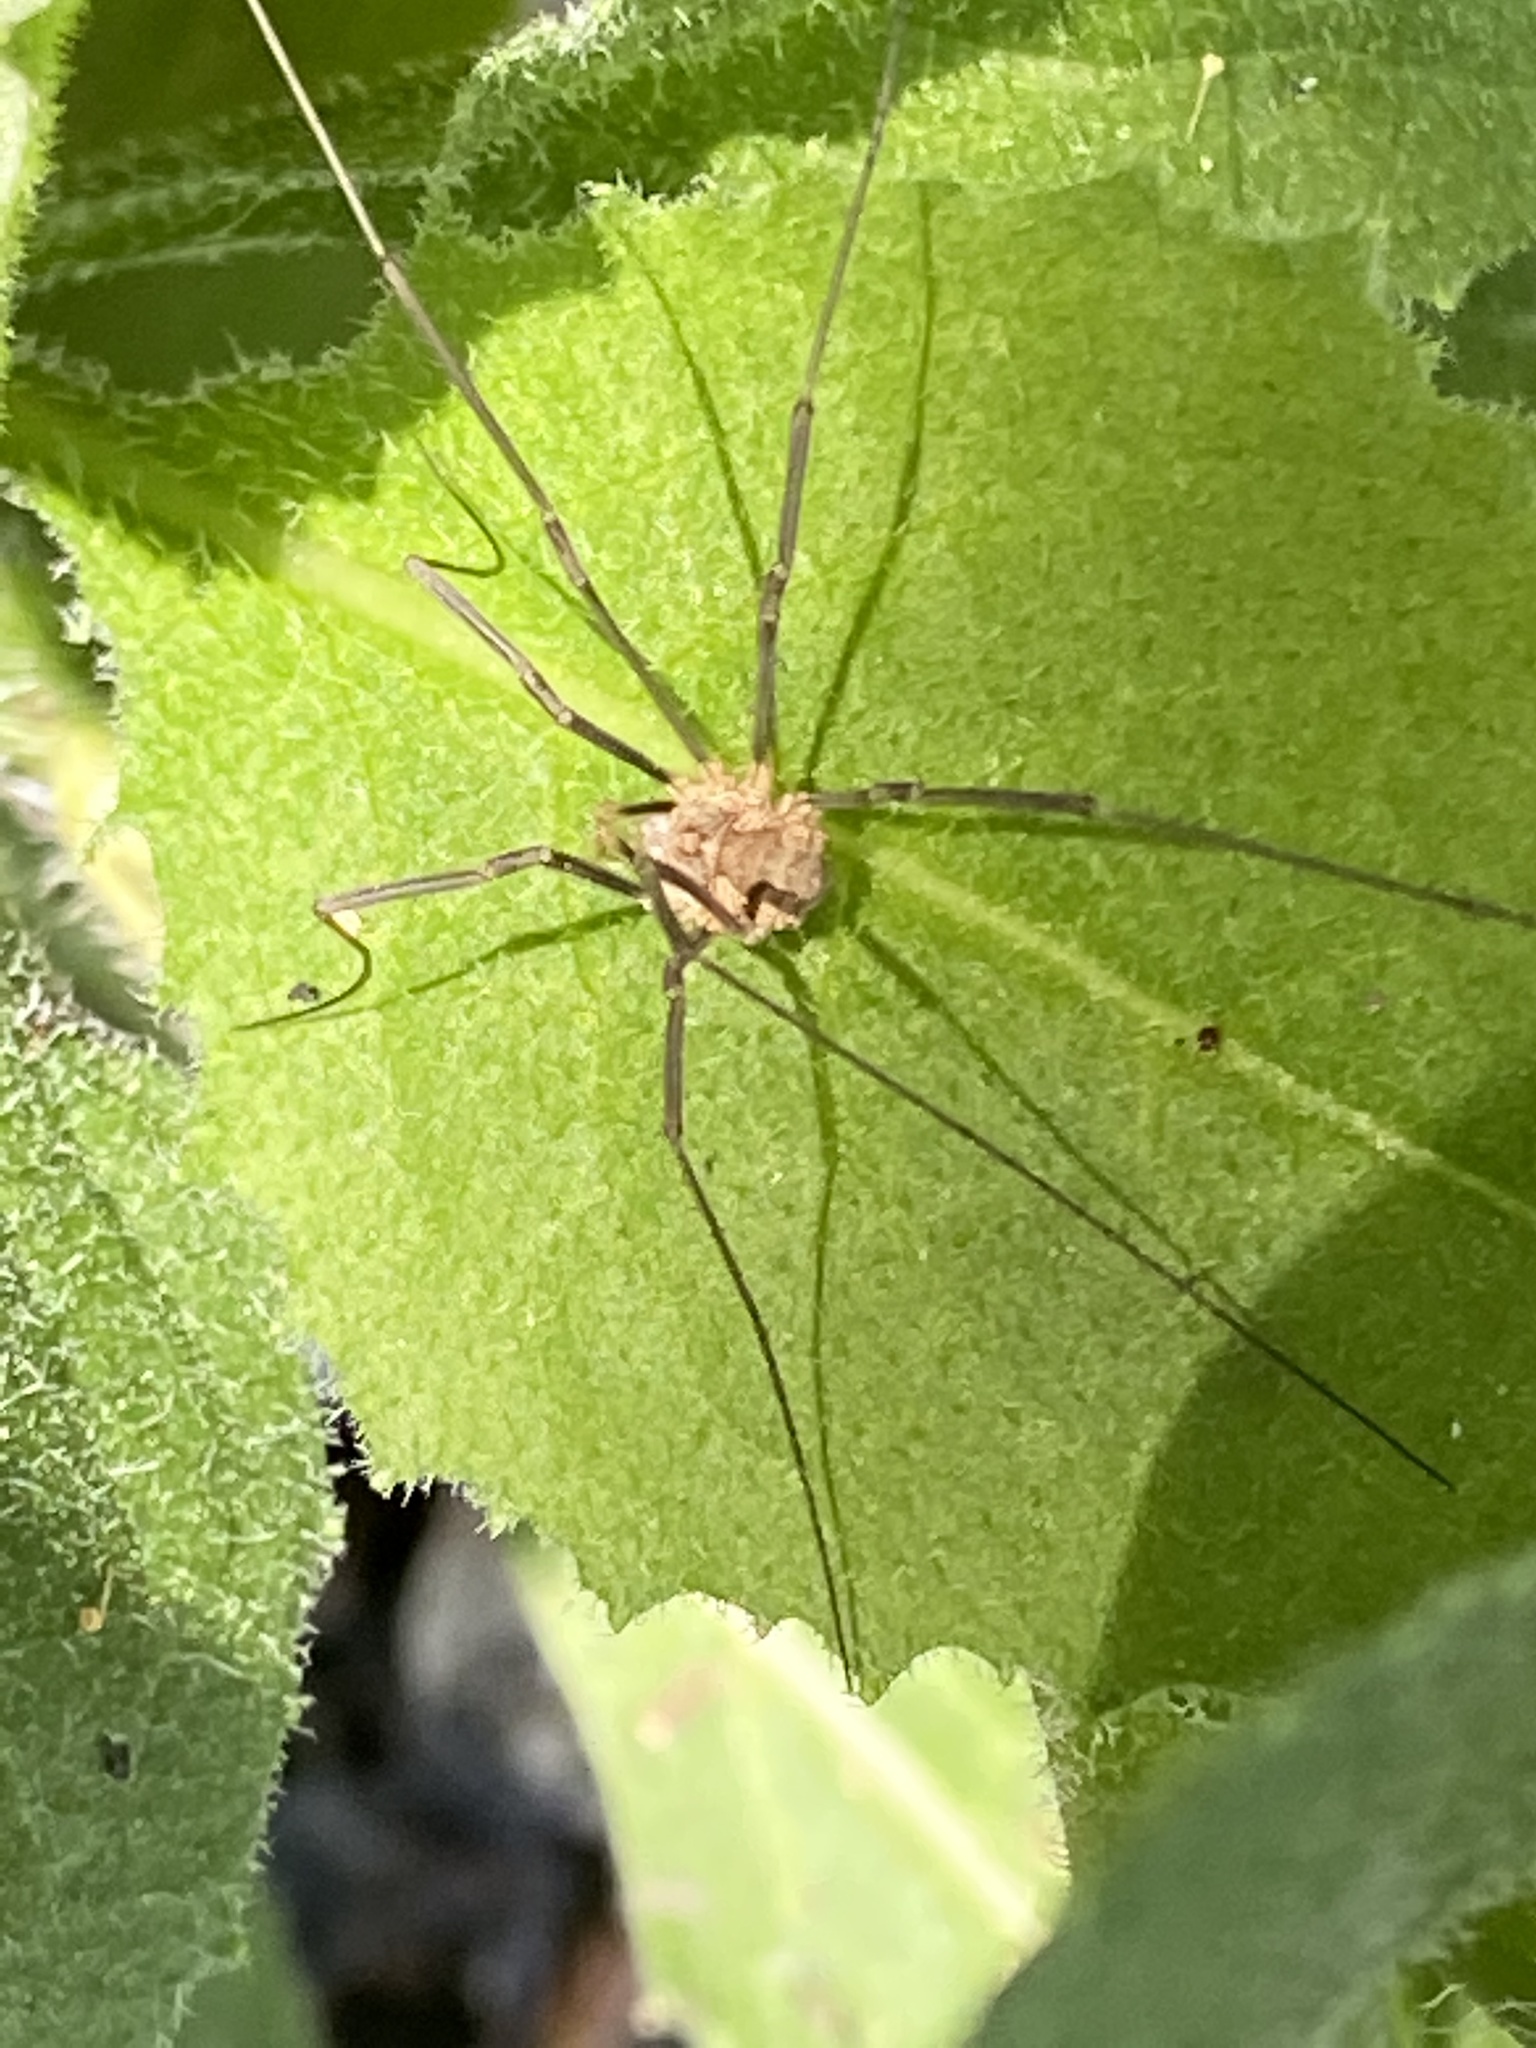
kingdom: Animalia
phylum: Arthropoda
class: Arachnida
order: Opiliones
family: Phalangiidae
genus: Phalangium
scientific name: Phalangium opilio
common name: Daddy longleg
